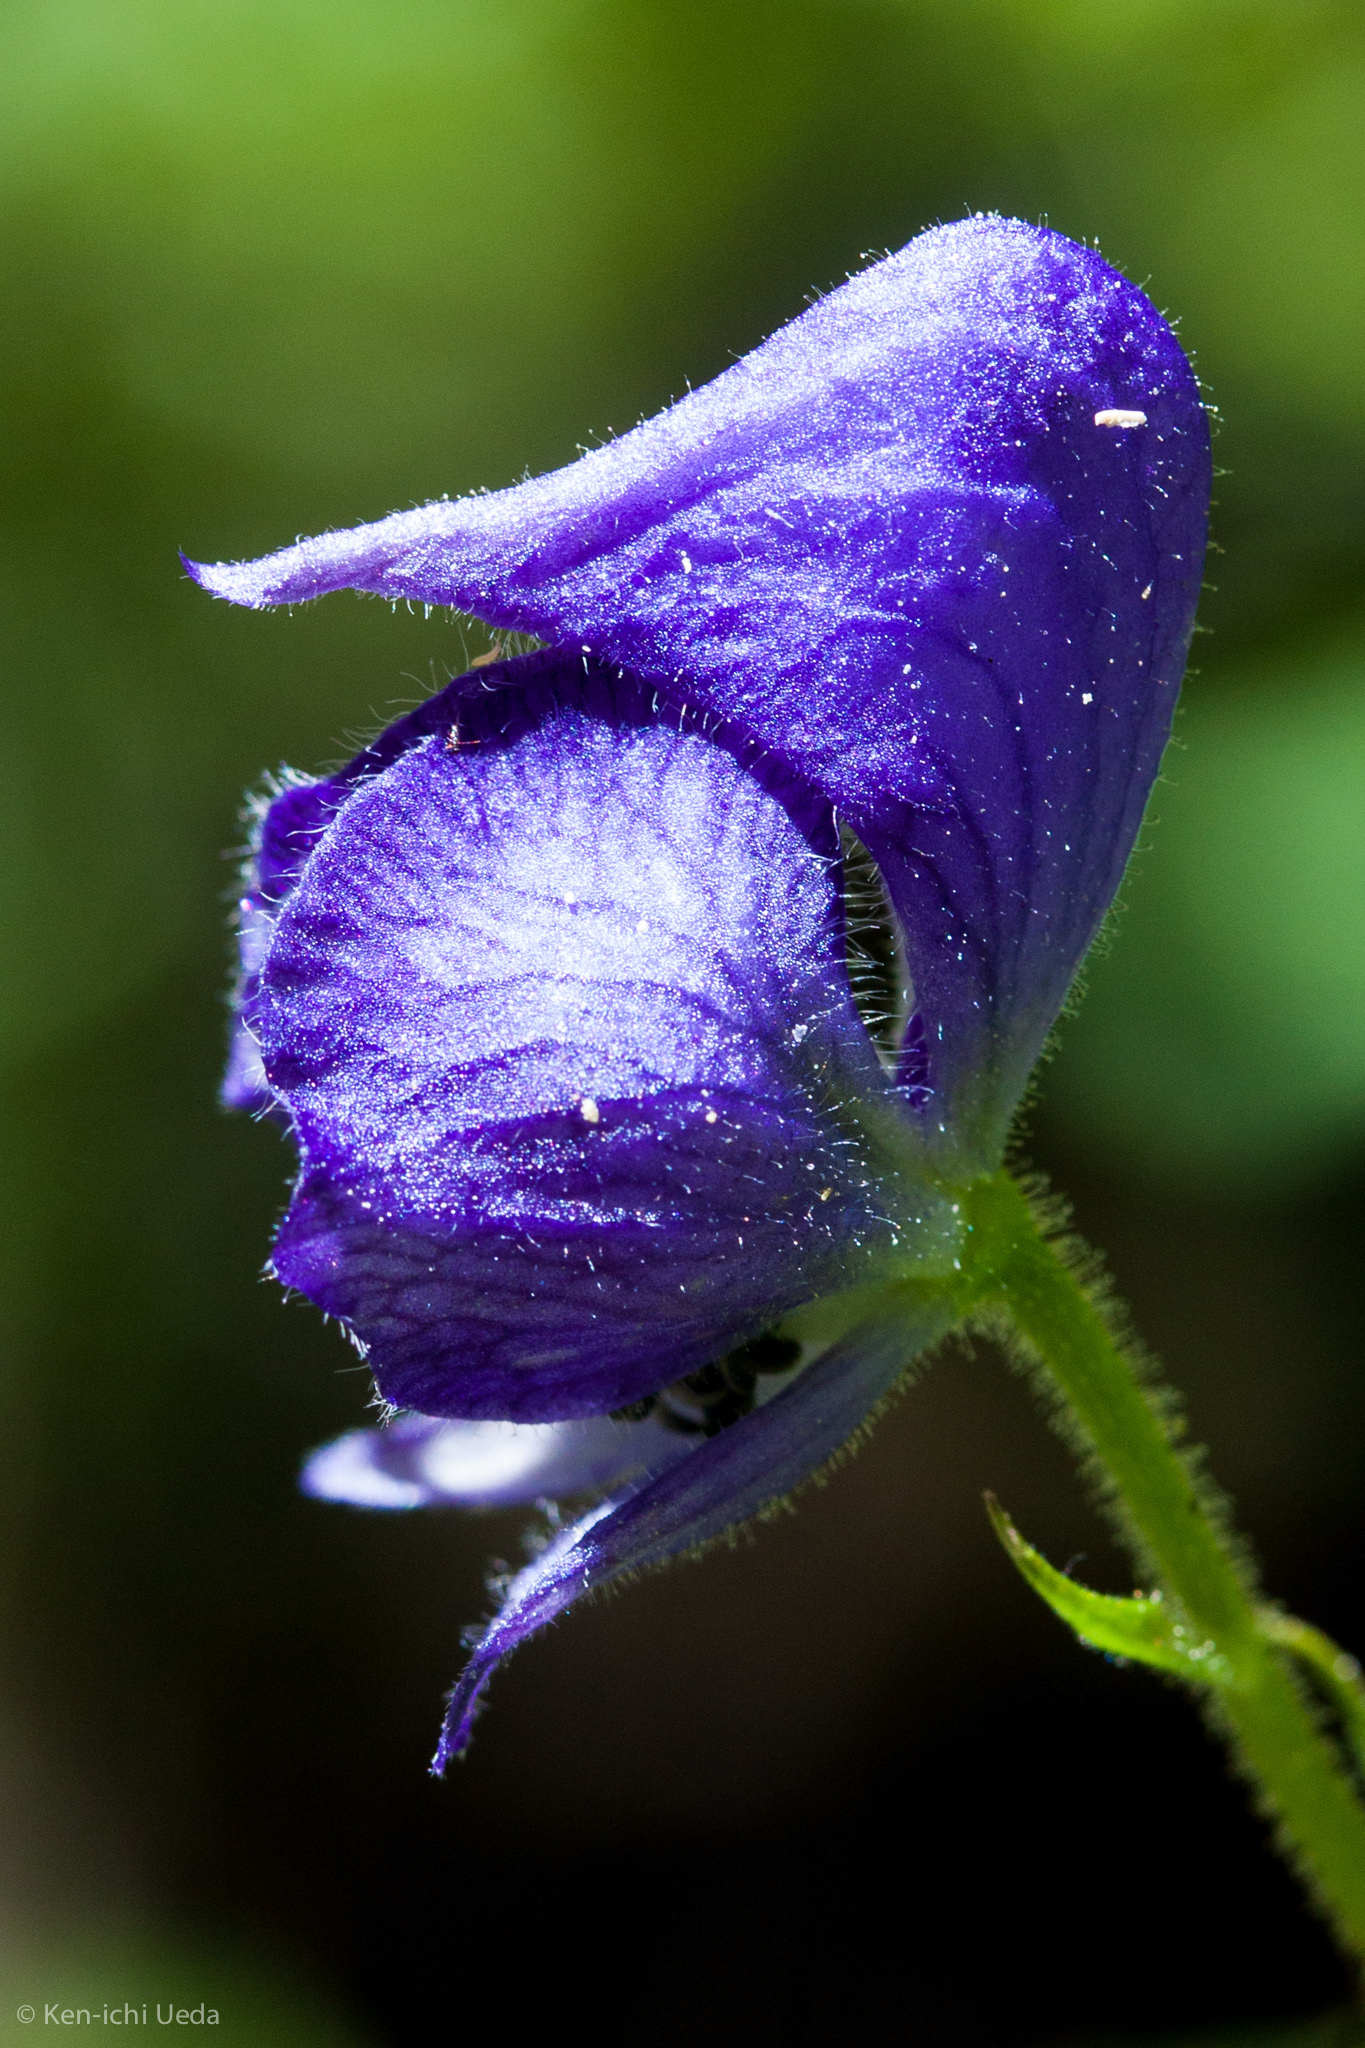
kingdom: Plantae
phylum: Tracheophyta
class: Magnoliopsida
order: Ranunculales
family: Ranunculaceae
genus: Aconitum
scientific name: Aconitum columbianum
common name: Columbia aconite
